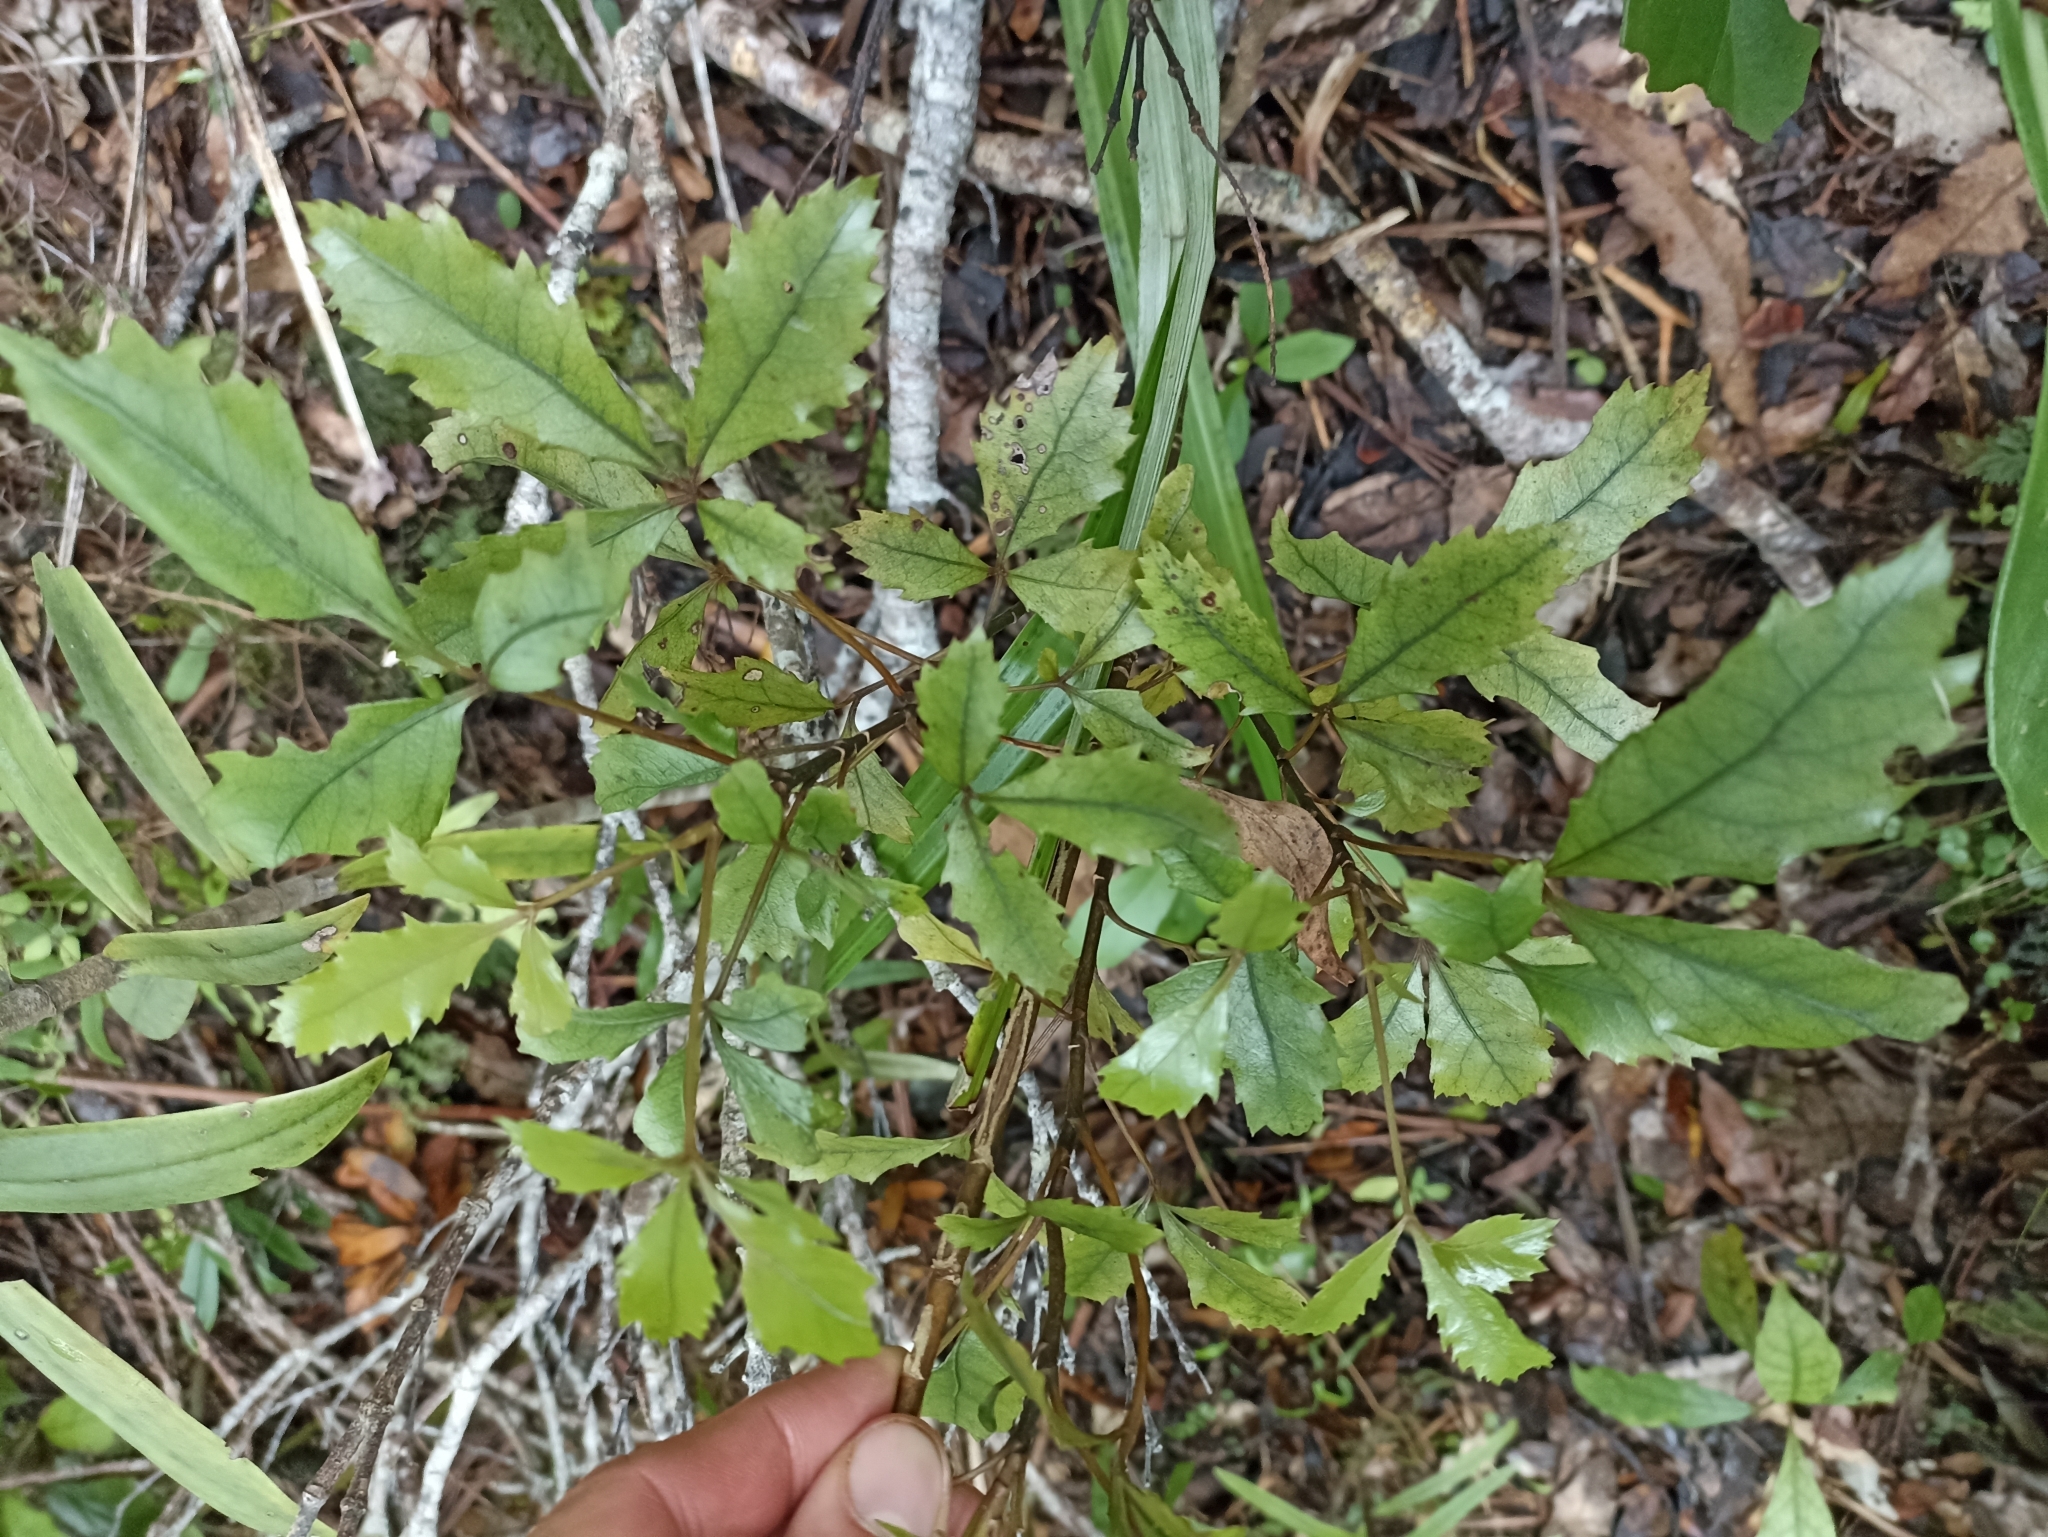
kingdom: Plantae
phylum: Tracheophyta
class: Magnoliopsida
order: Apiales
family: Araliaceae
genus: Pseudopanax
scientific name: Pseudopanax discolor
